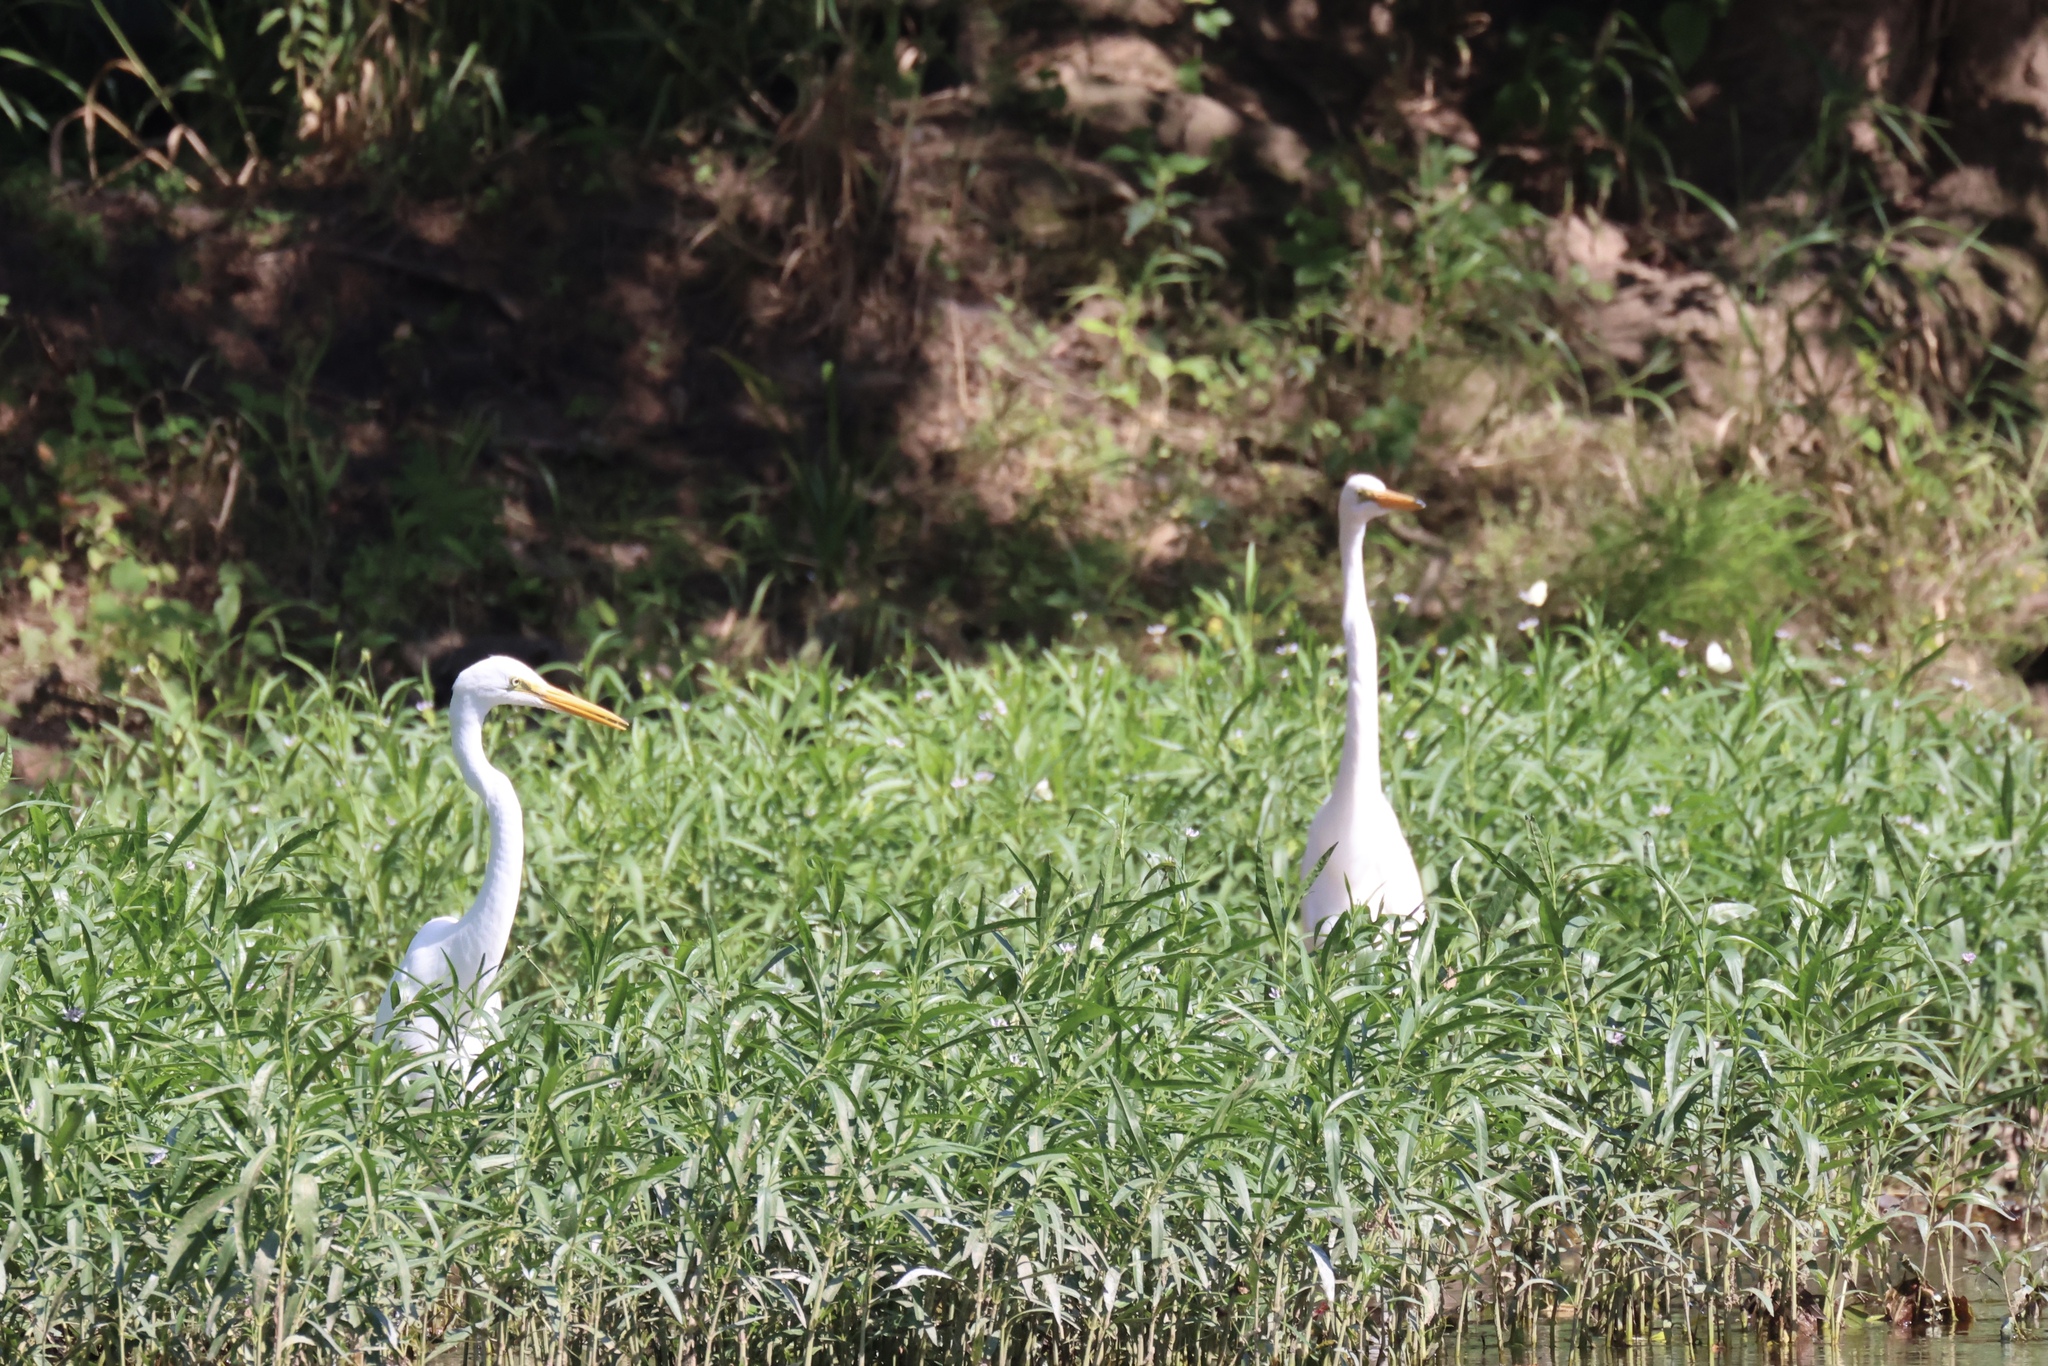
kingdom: Animalia
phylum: Chordata
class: Aves
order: Pelecaniformes
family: Ardeidae
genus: Ardea
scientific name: Ardea alba
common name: Great egret
